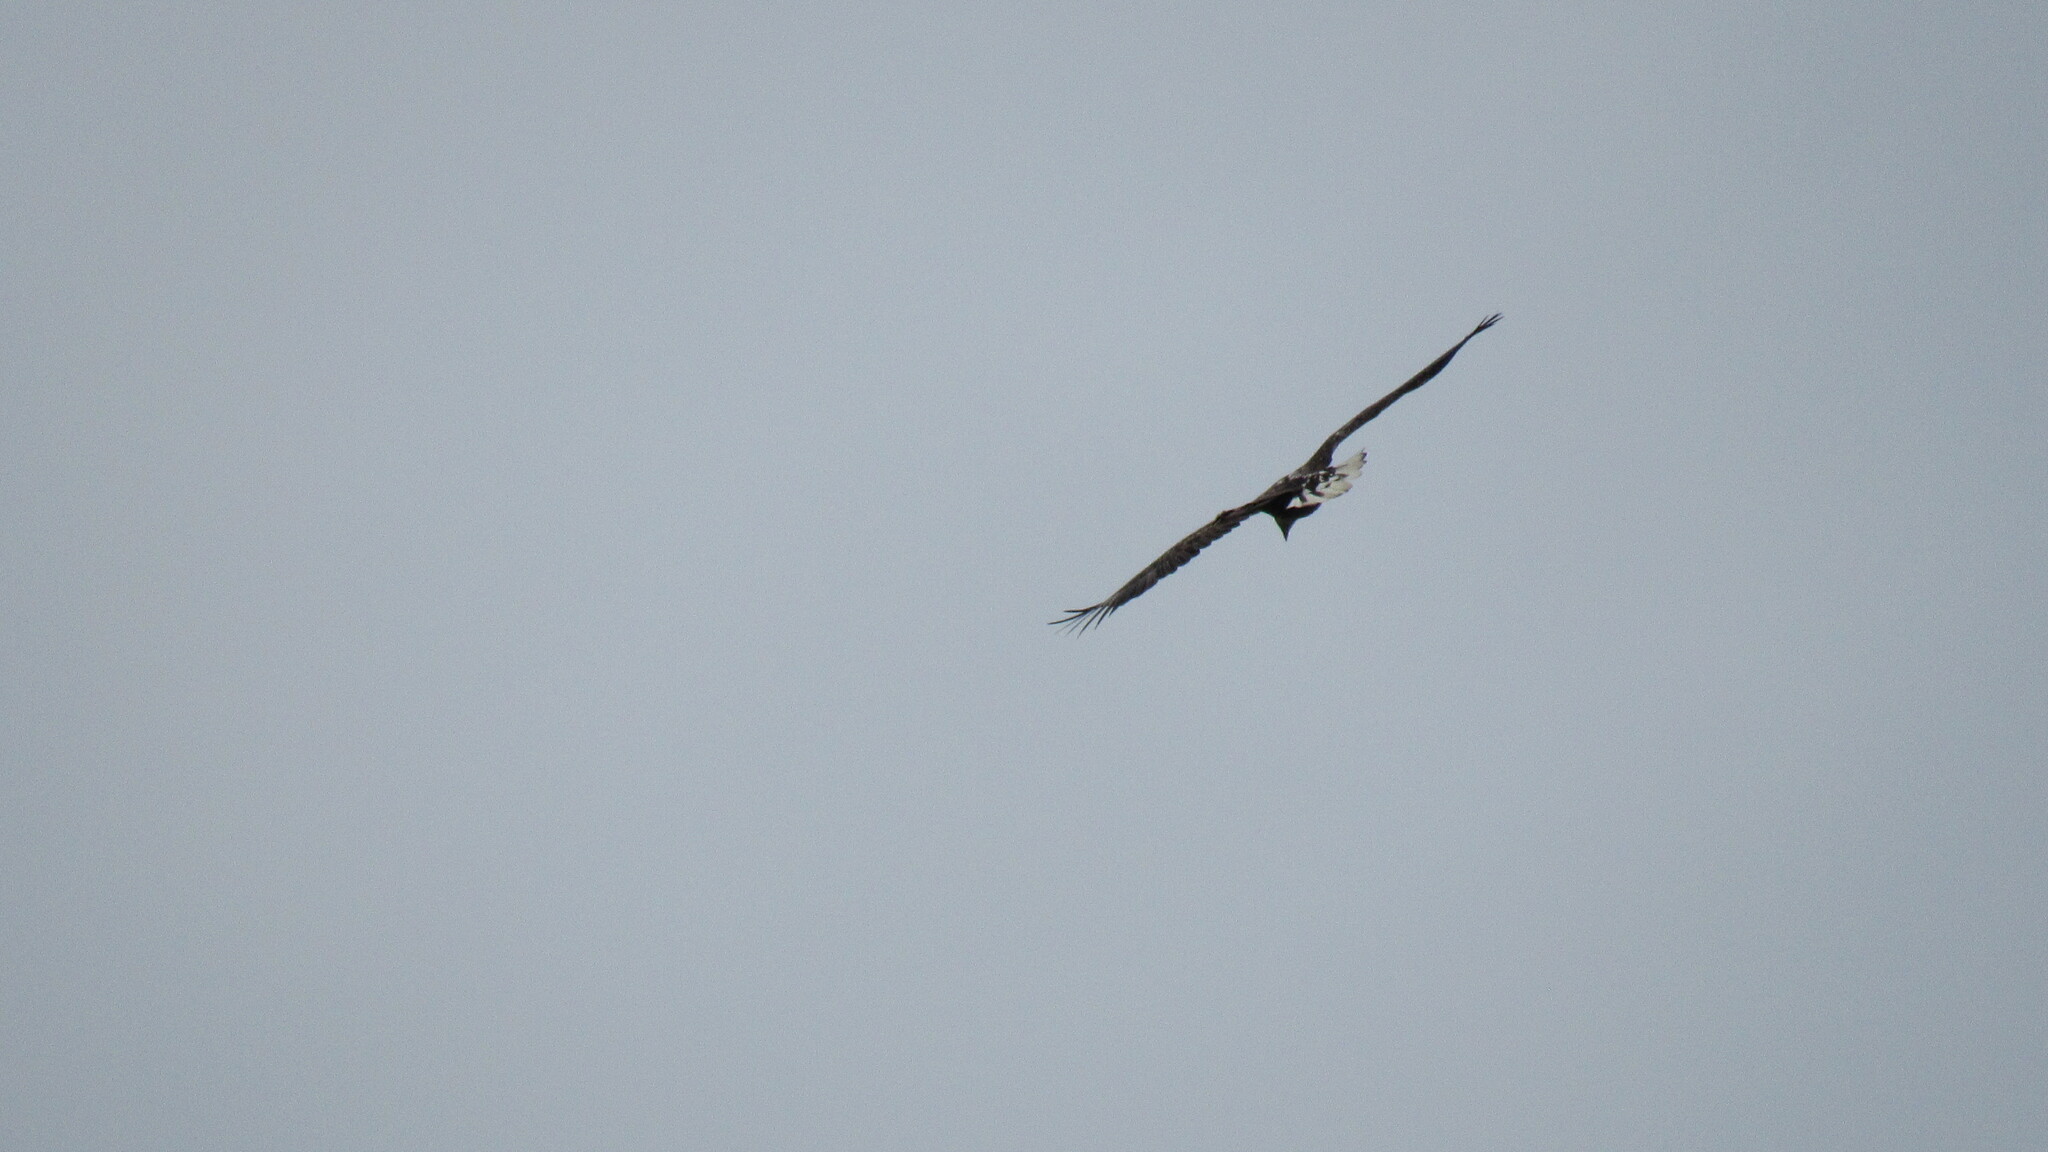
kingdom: Animalia
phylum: Chordata
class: Aves
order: Accipitriformes
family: Accipitridae
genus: Haliaeetus
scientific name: Haliaeetus albicilla
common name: White-tailed eagle
